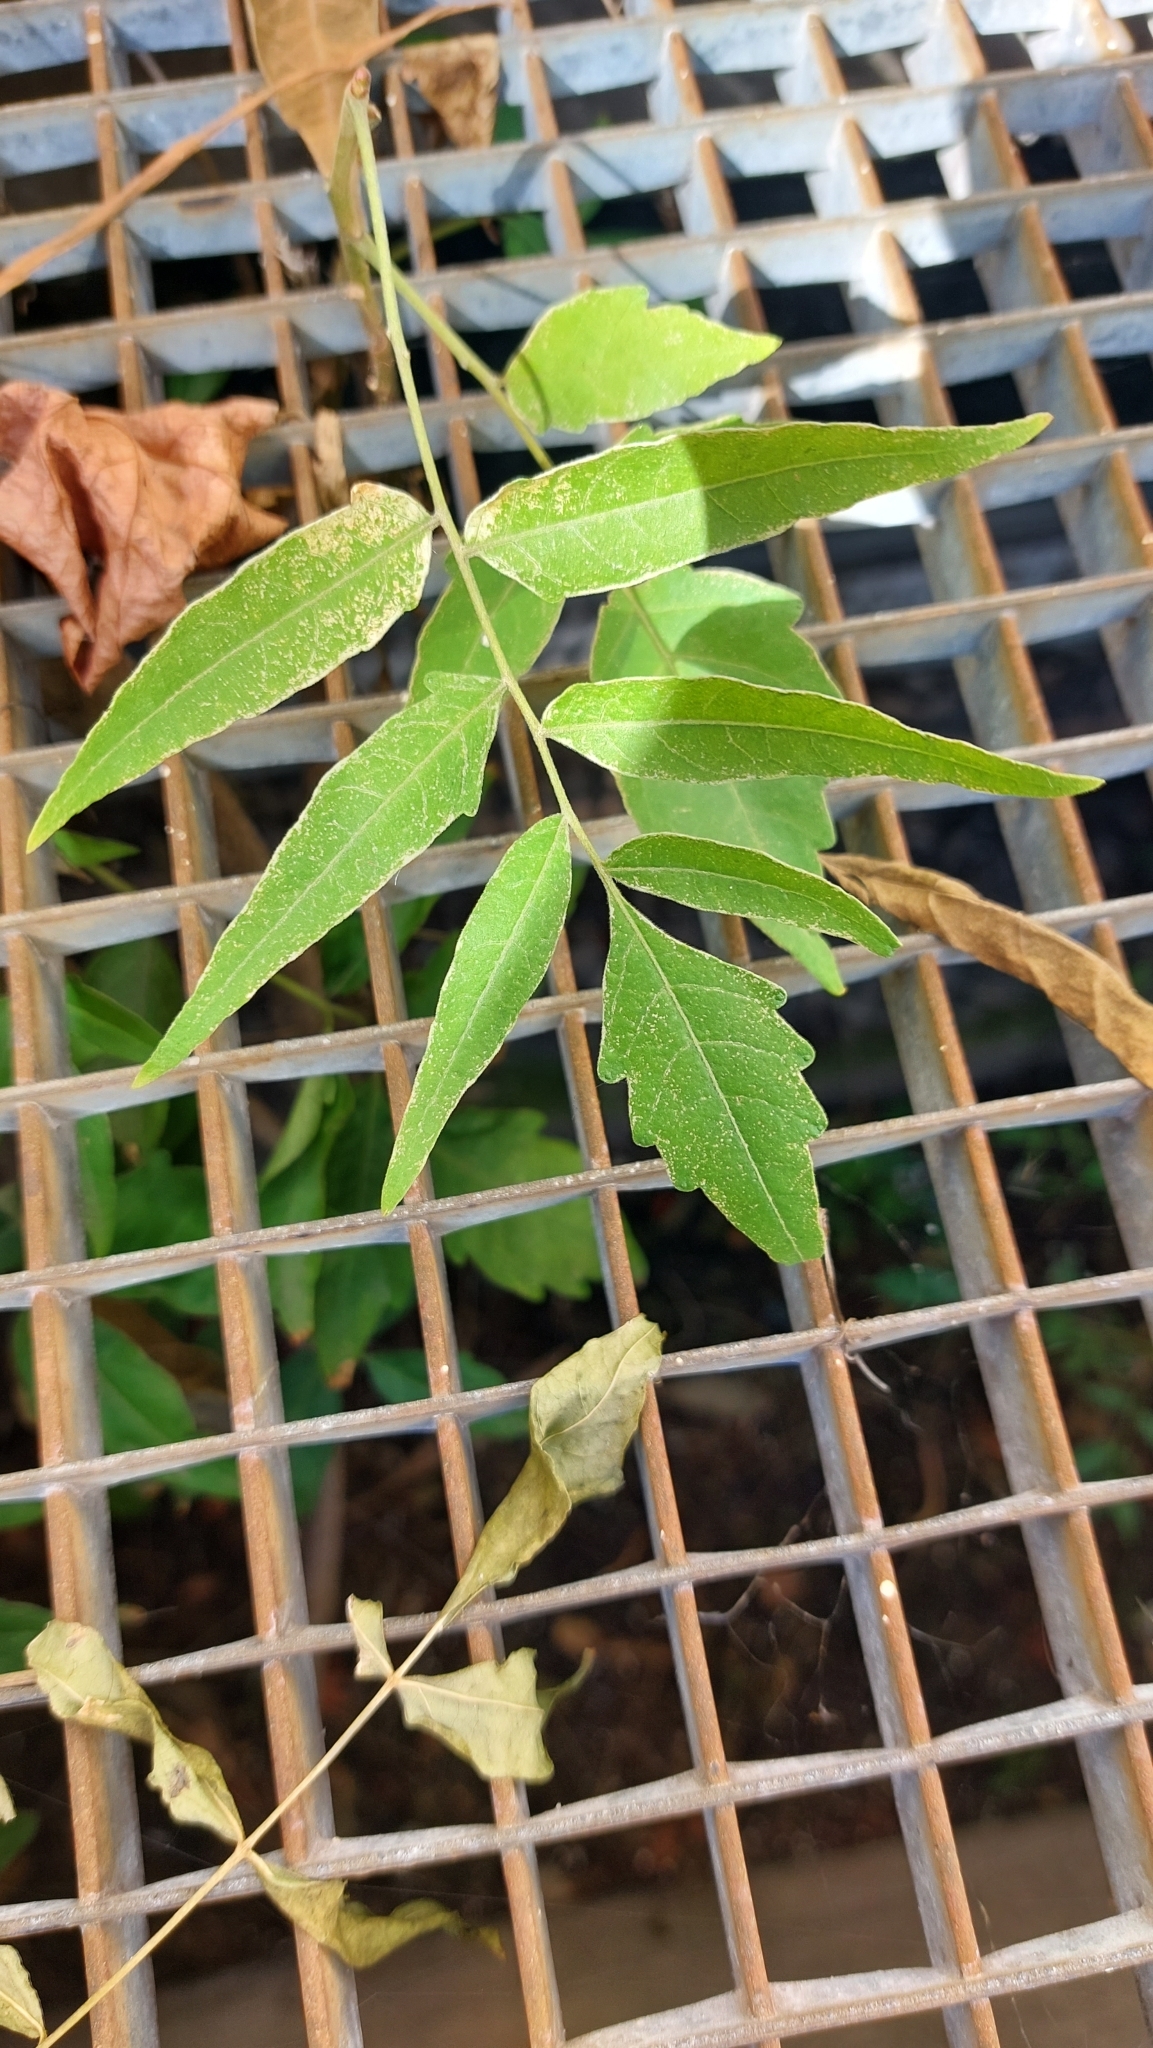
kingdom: Plantae
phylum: Tracheophyta
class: Magnoliopsida
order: Sapindales
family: Simaroubaceae
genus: Ailanthus
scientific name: Ailanthus altissima
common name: Tree-of-heaven
